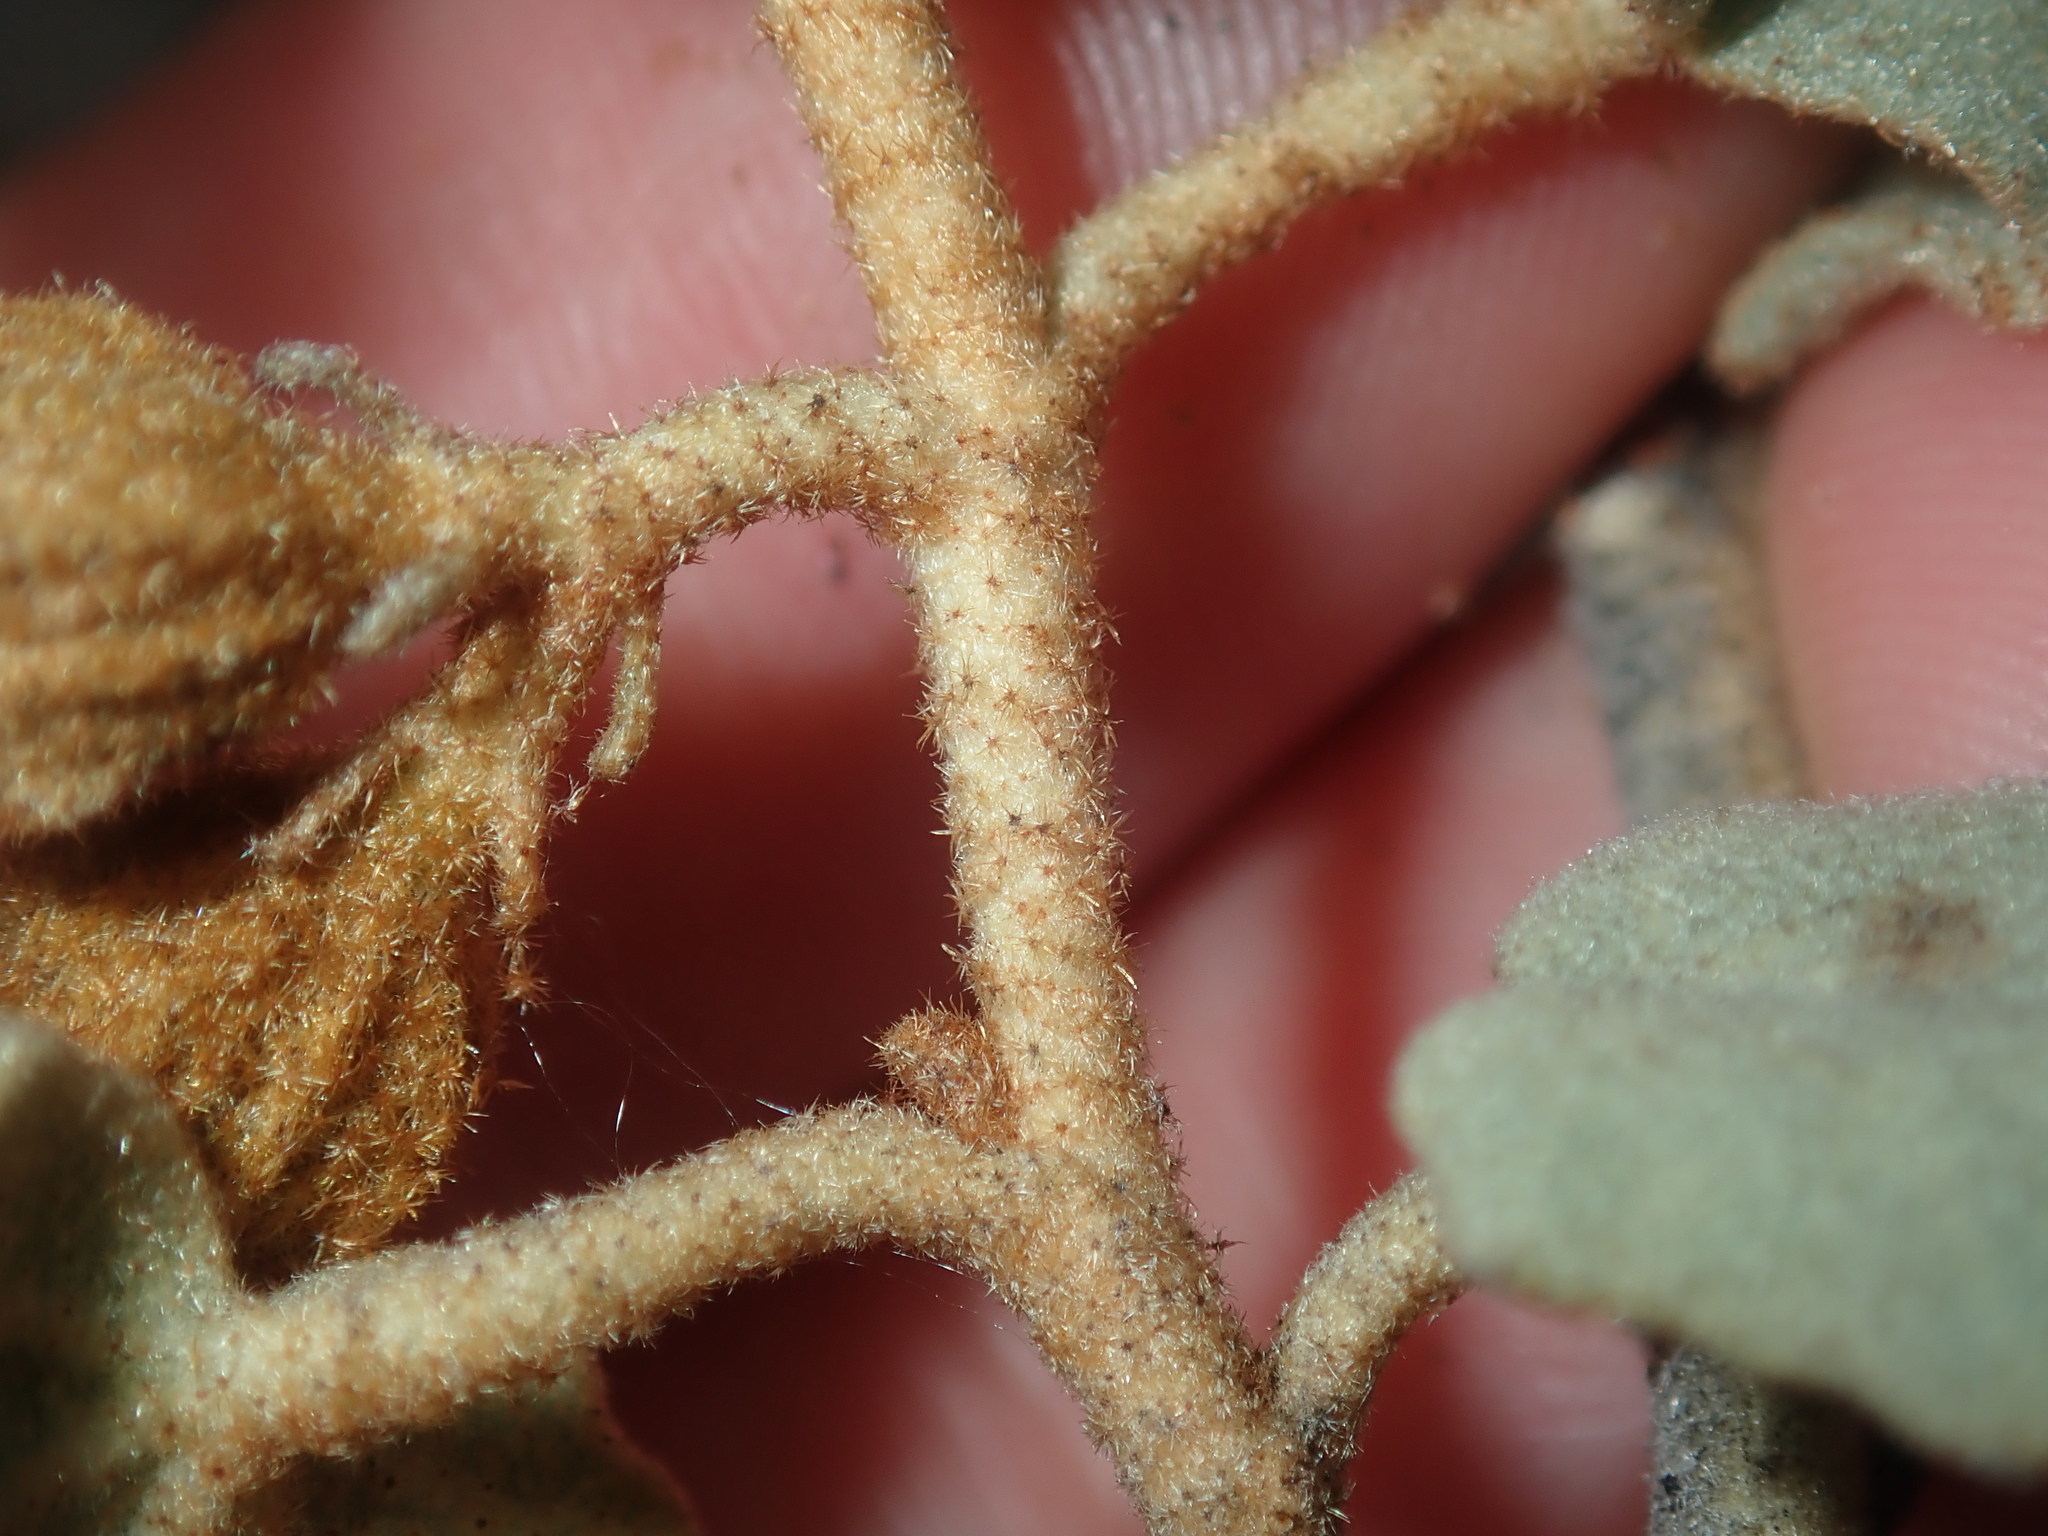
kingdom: Plantae
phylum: Tracheophyta
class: Magnoliopsida
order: Malvales
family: Malvaceae
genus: Hannafordia
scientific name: Hannafordia quadrivalvis
